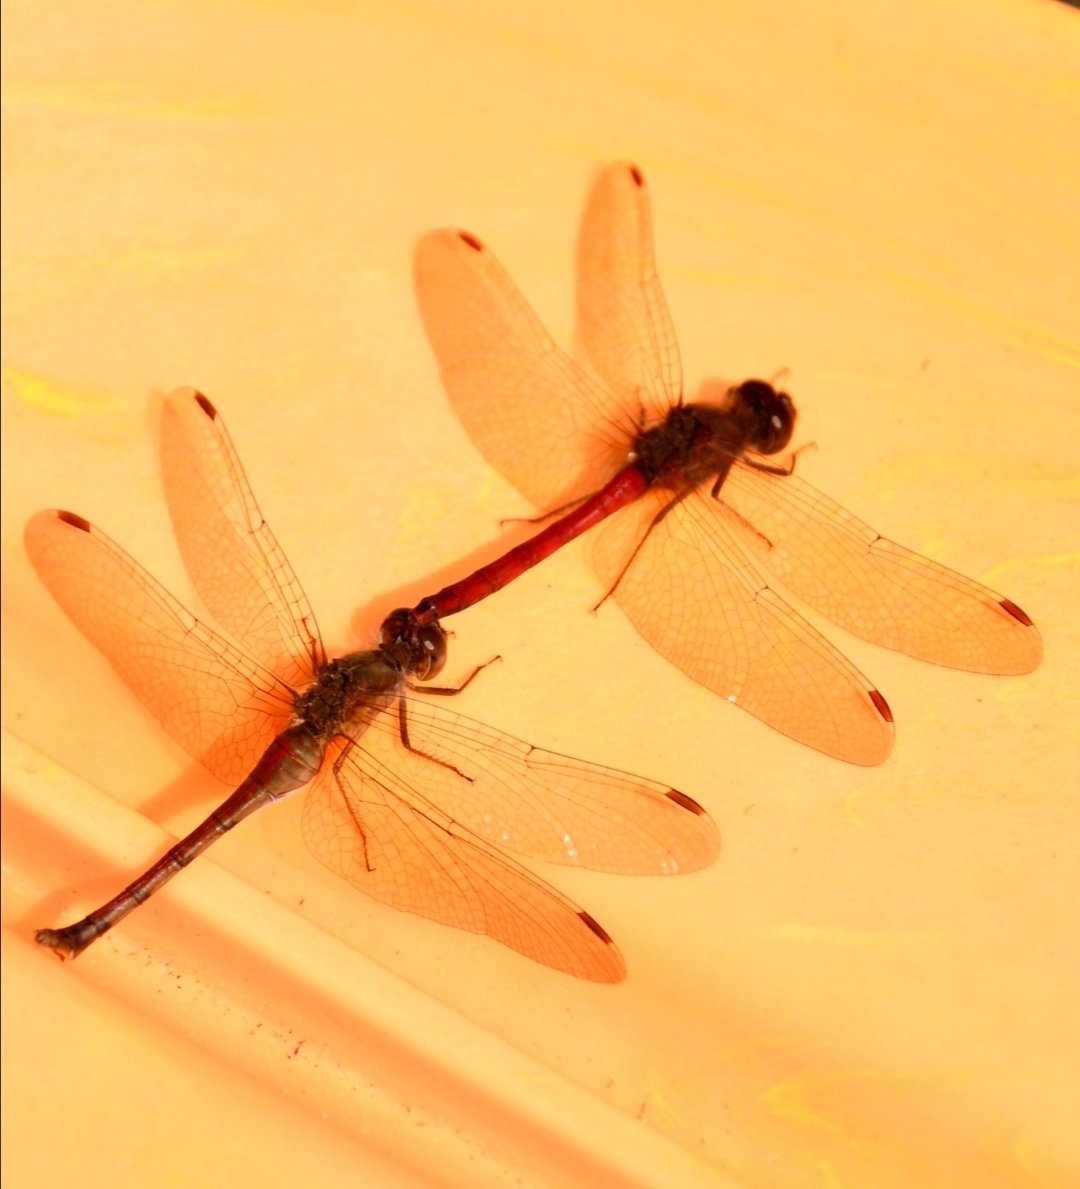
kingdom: Animalia
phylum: Arthropoda
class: Insecta
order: Odonata
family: Libellulidae
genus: Sympetrum
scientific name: Sympetrum vicinum
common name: Autumn meadowhawk
